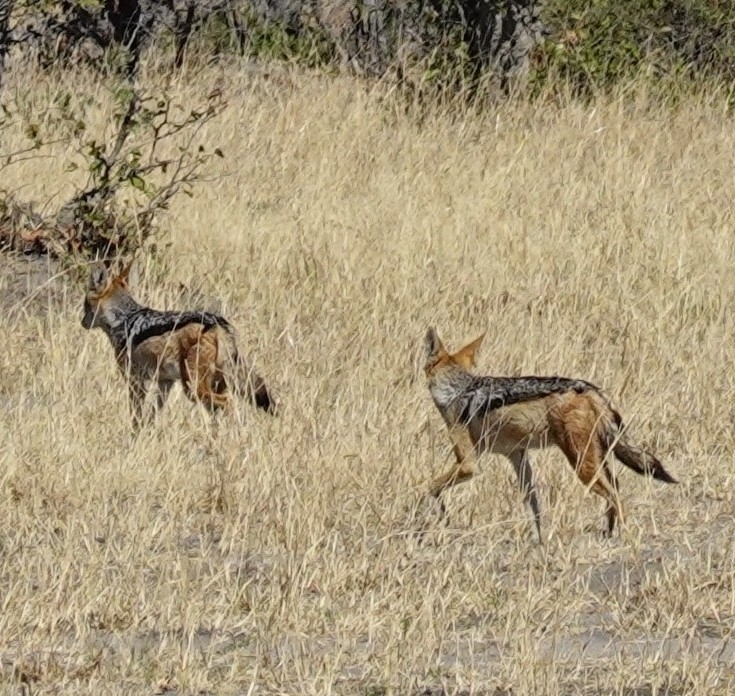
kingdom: Animalia
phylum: Chordata
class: Mammalia
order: Carnivora
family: Canidae
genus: Lupulella
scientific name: Lupulella
